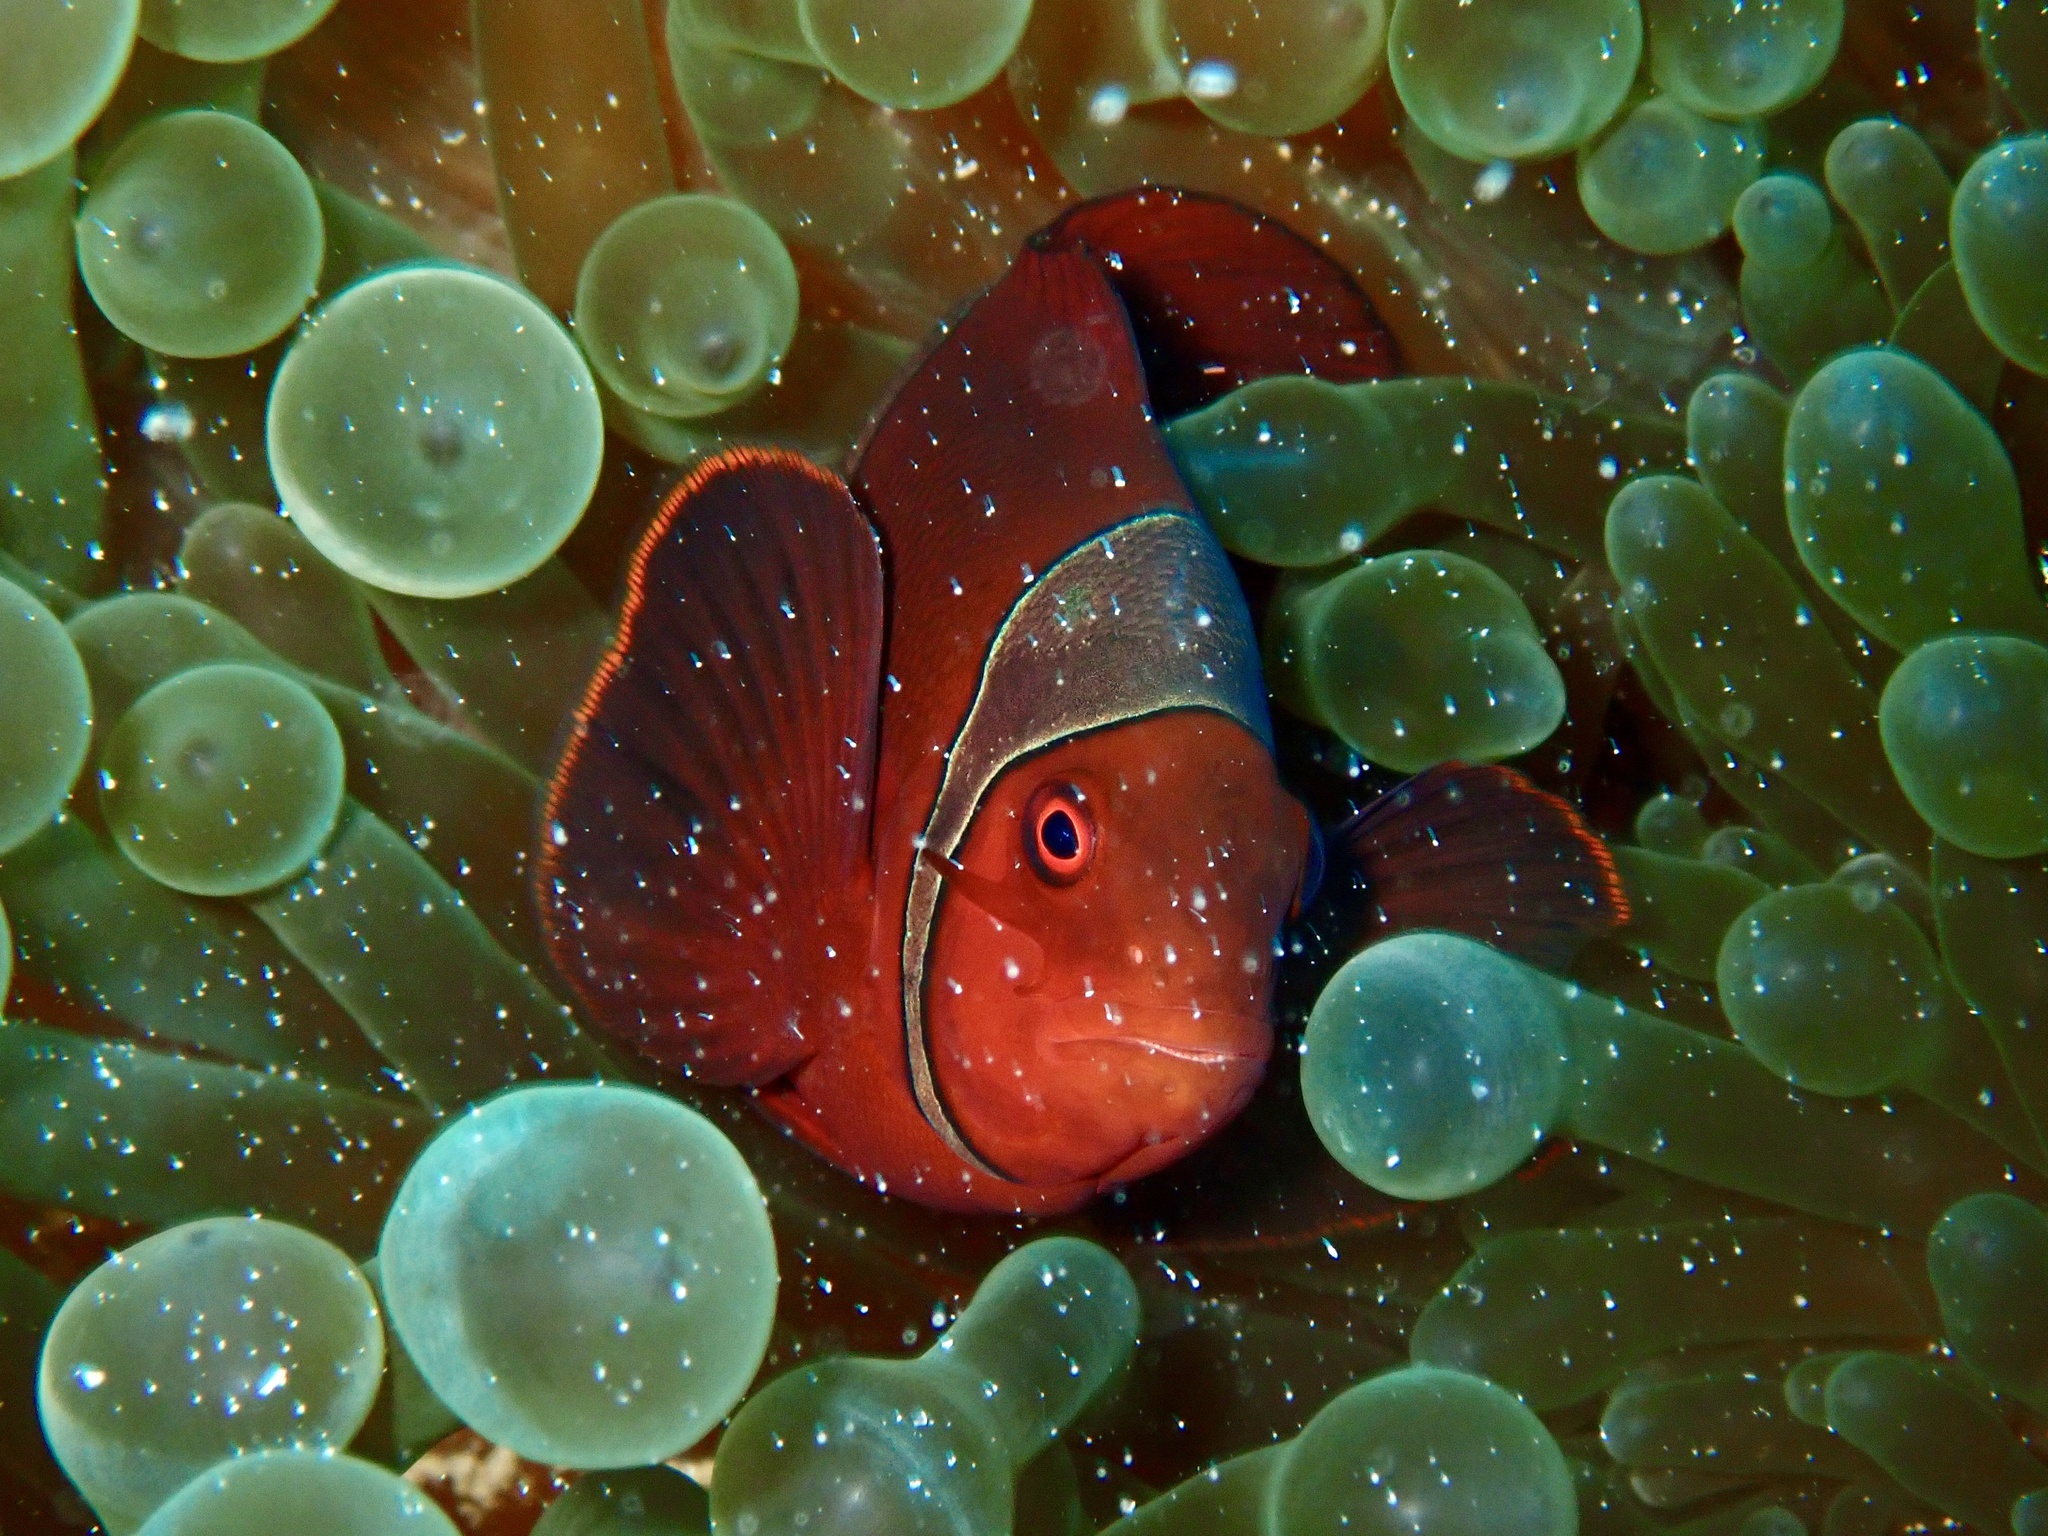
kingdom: Animalia
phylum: Chordata
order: Perciformes
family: Pomacentridae
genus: Premnas
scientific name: Premnas biaculeatus
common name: Spinecheek anemonefish
